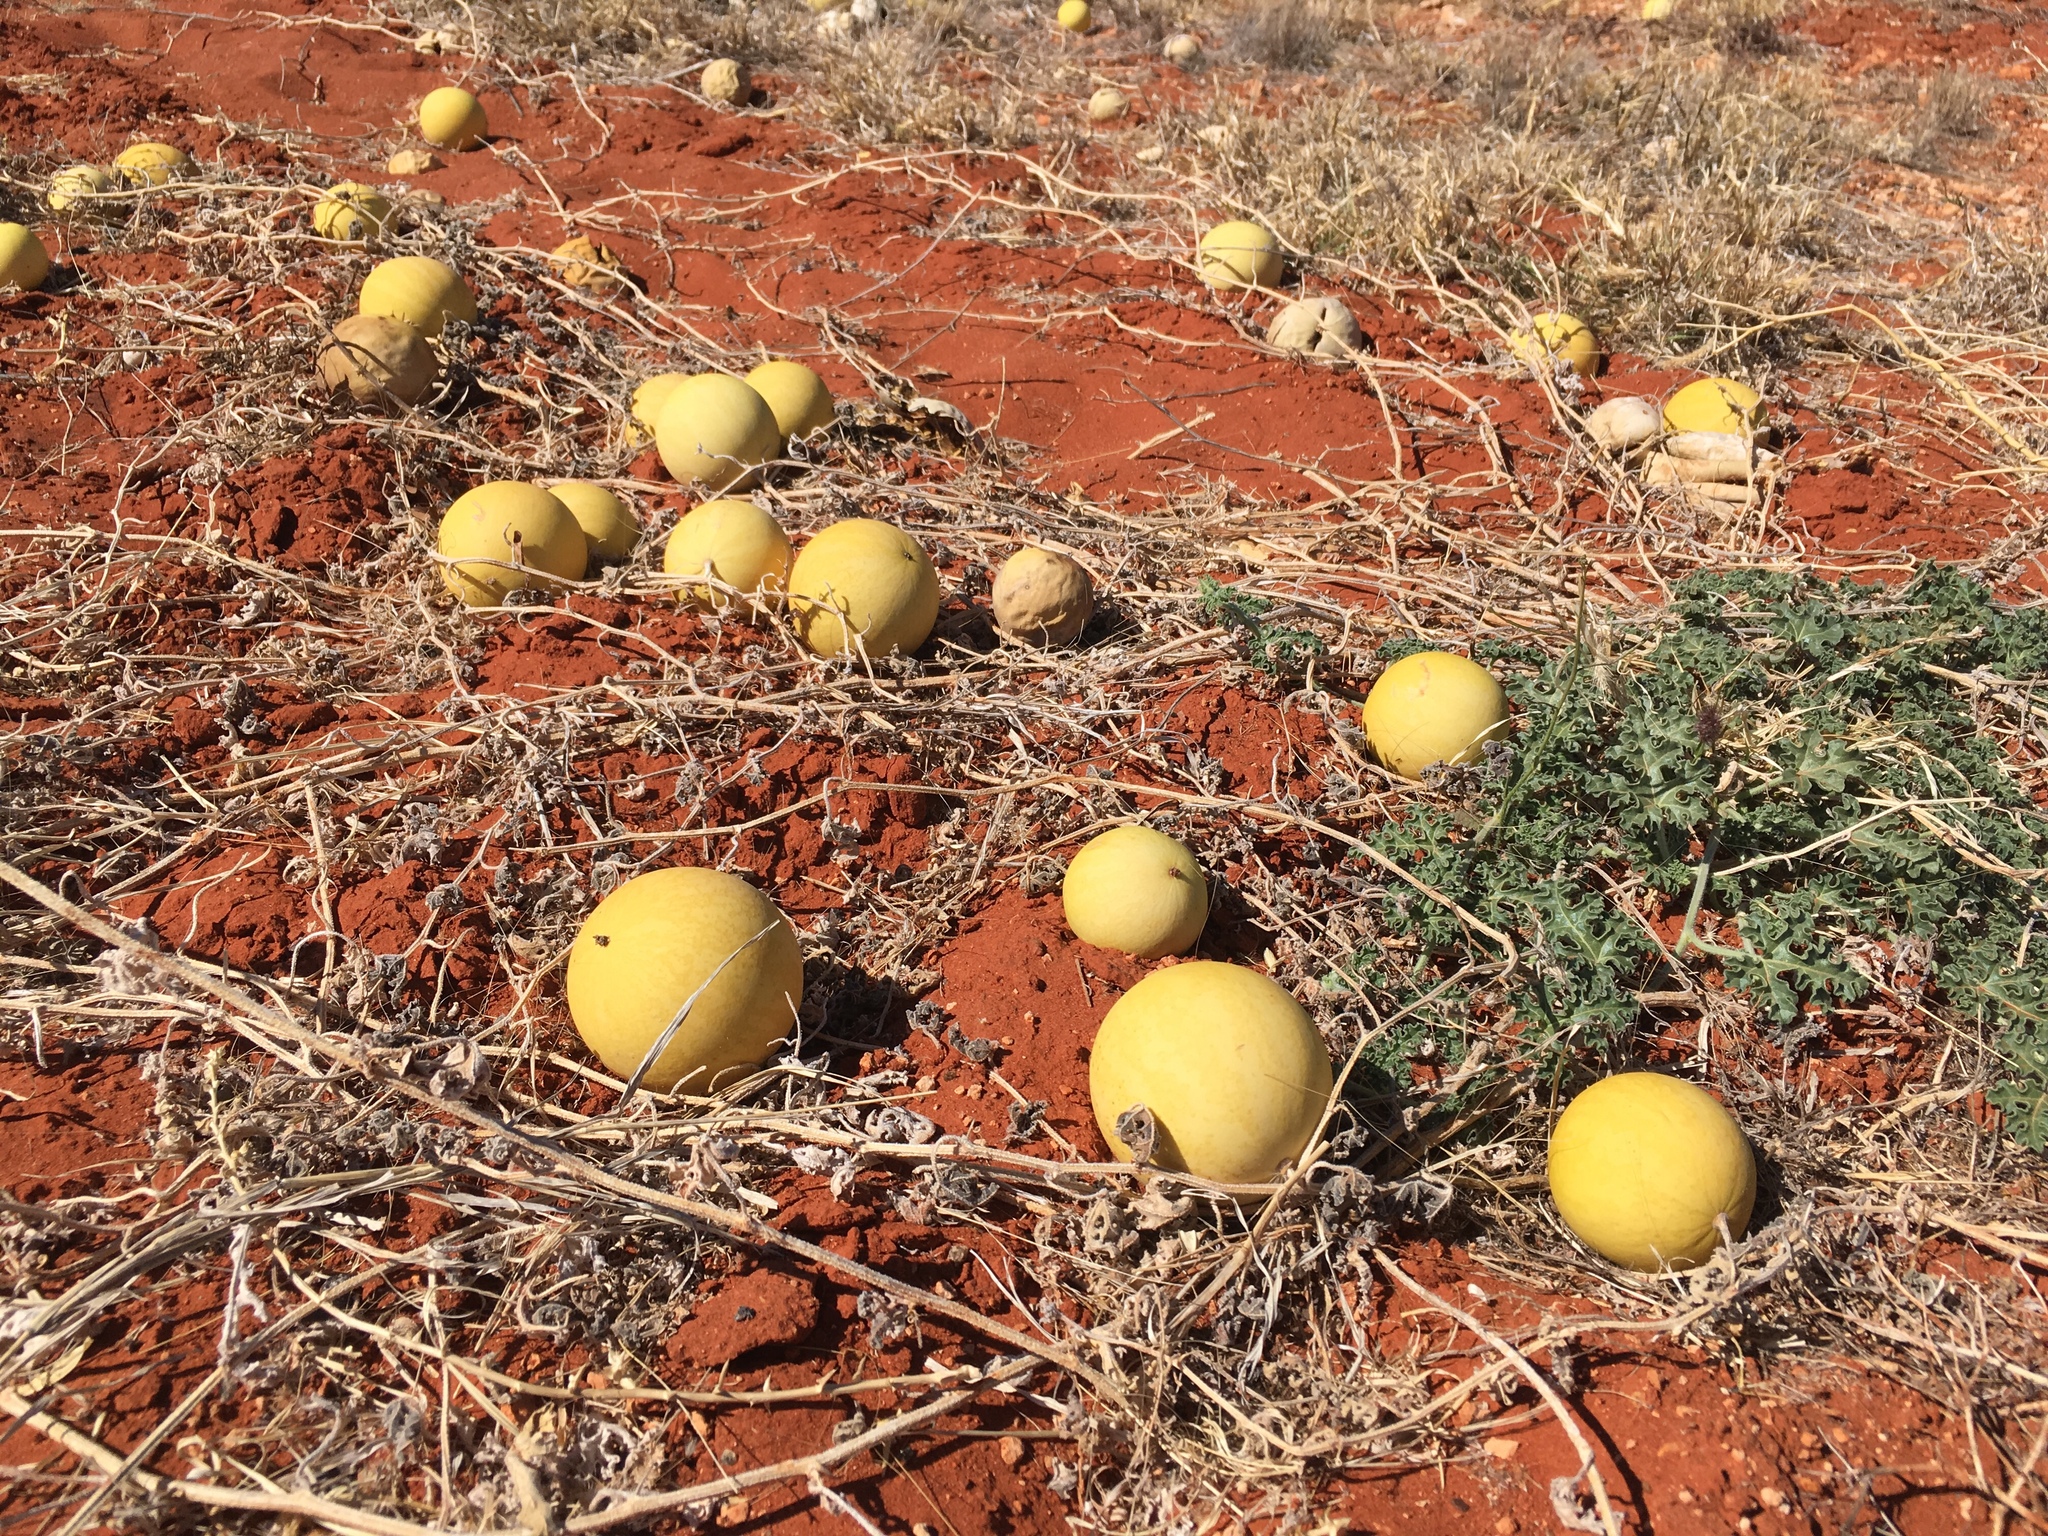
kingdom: Plantae
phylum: Tracheophyta
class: Magnoliopsida
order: Cucurbitales
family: Cucurbitaceae
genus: Citrullus
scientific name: Citrullus colocynthis
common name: Colocynth
